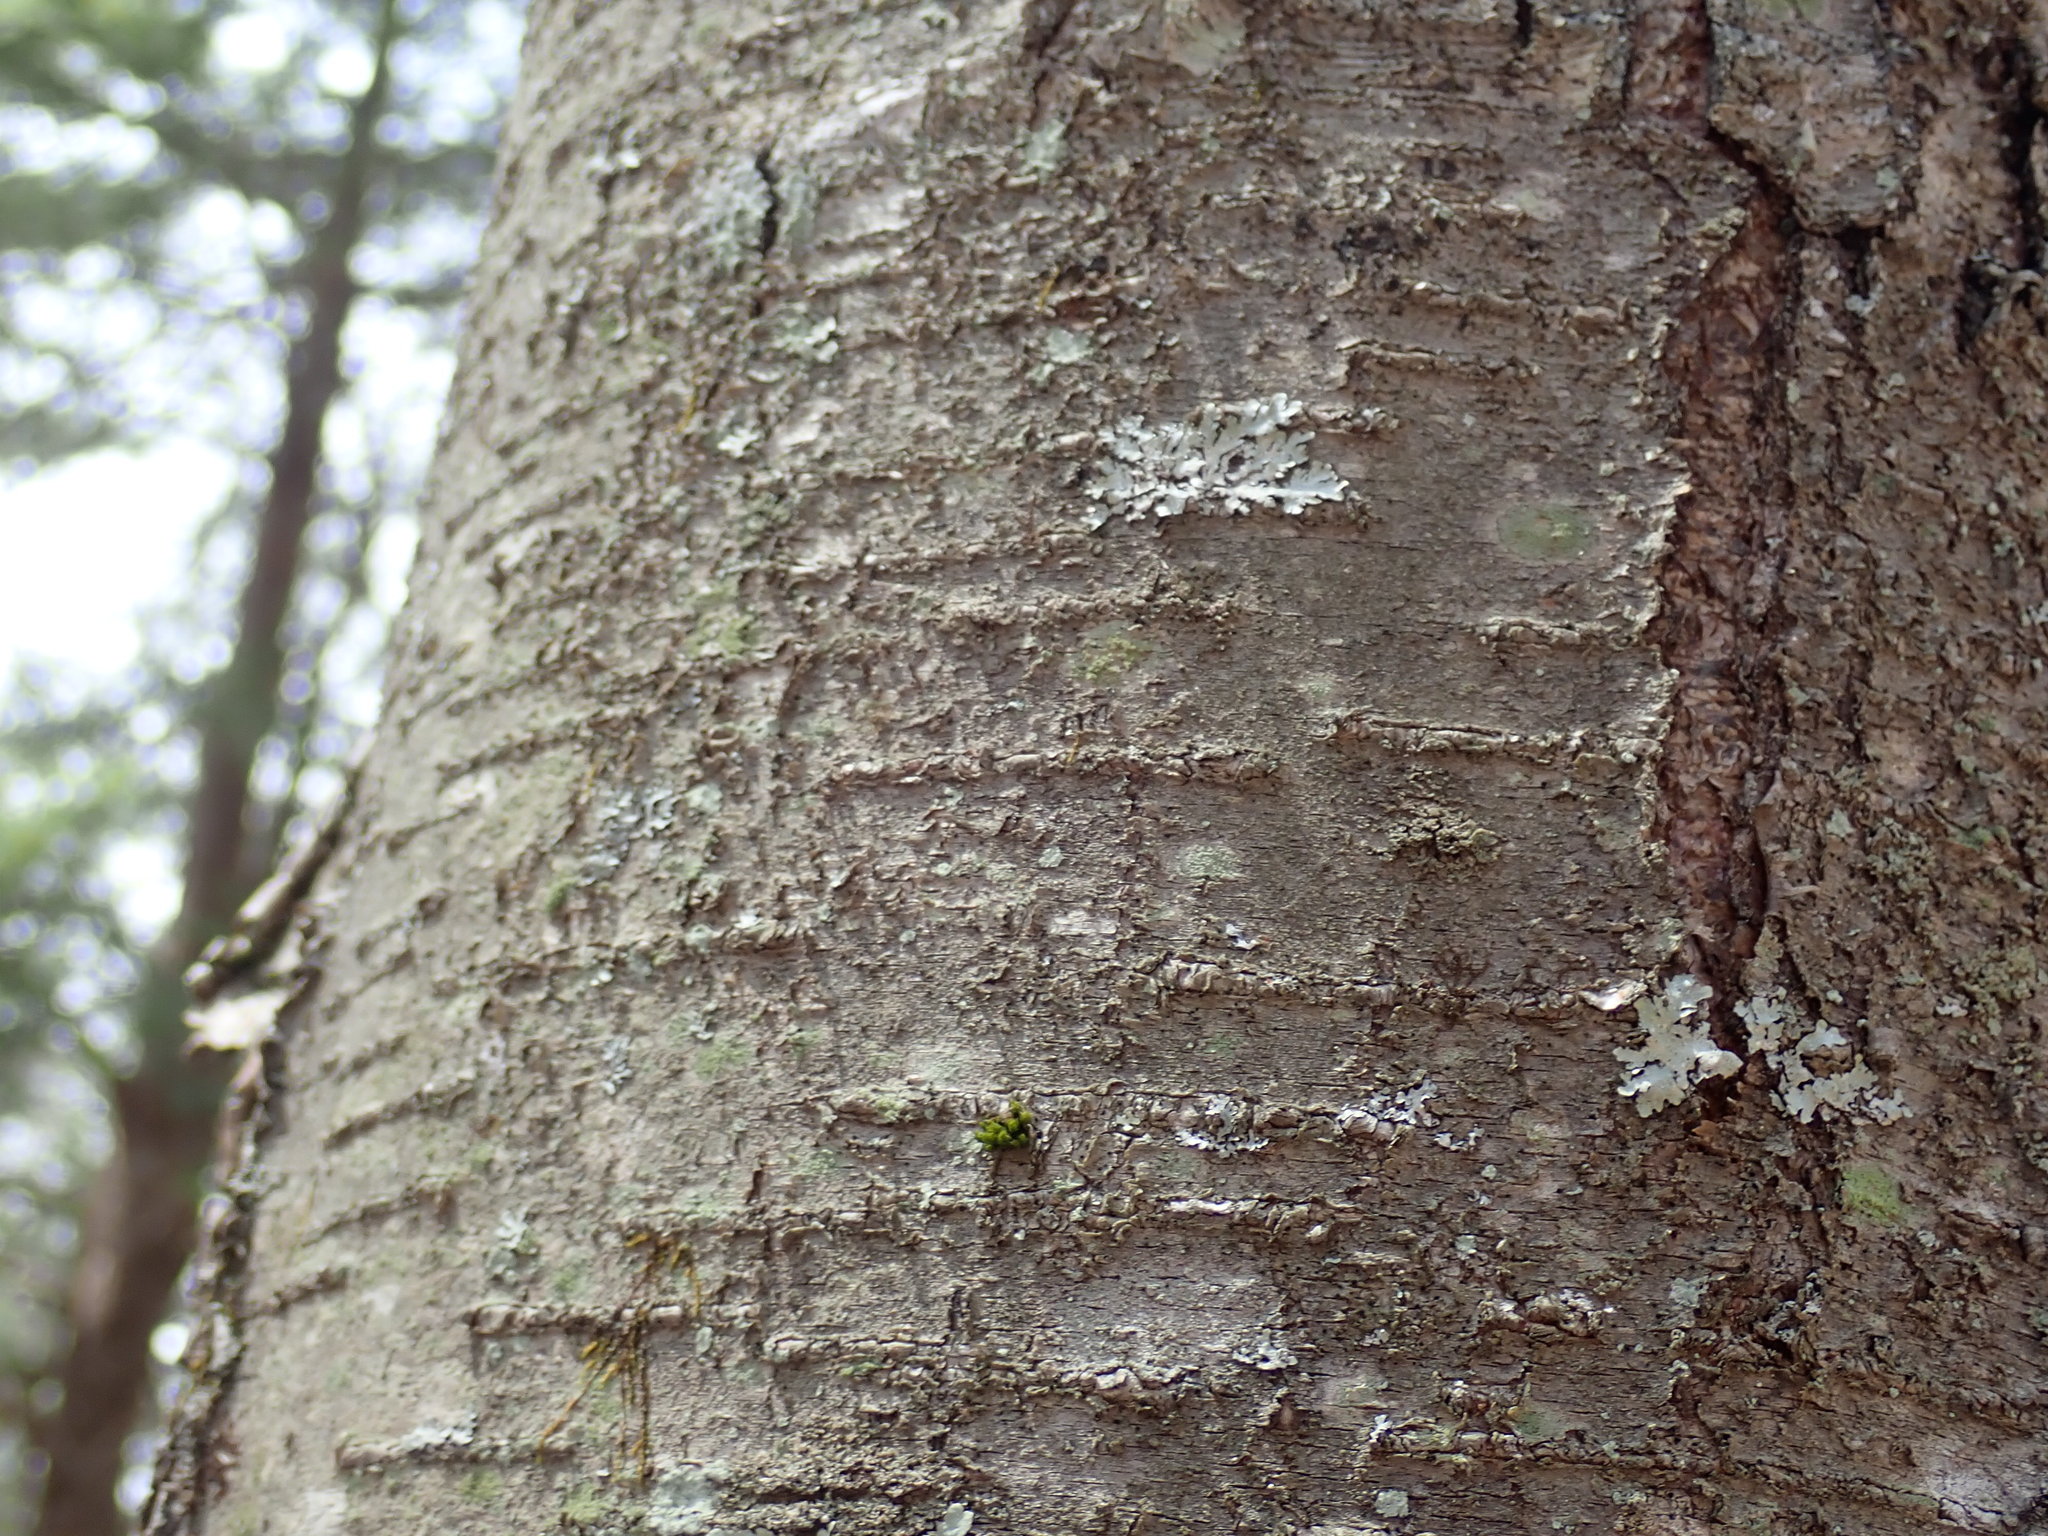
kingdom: Plantae
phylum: Tracheophyta
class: Magnoliopsida
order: Fagales
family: Betulaceae
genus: Betula
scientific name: Betula lenta
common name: Black birch
